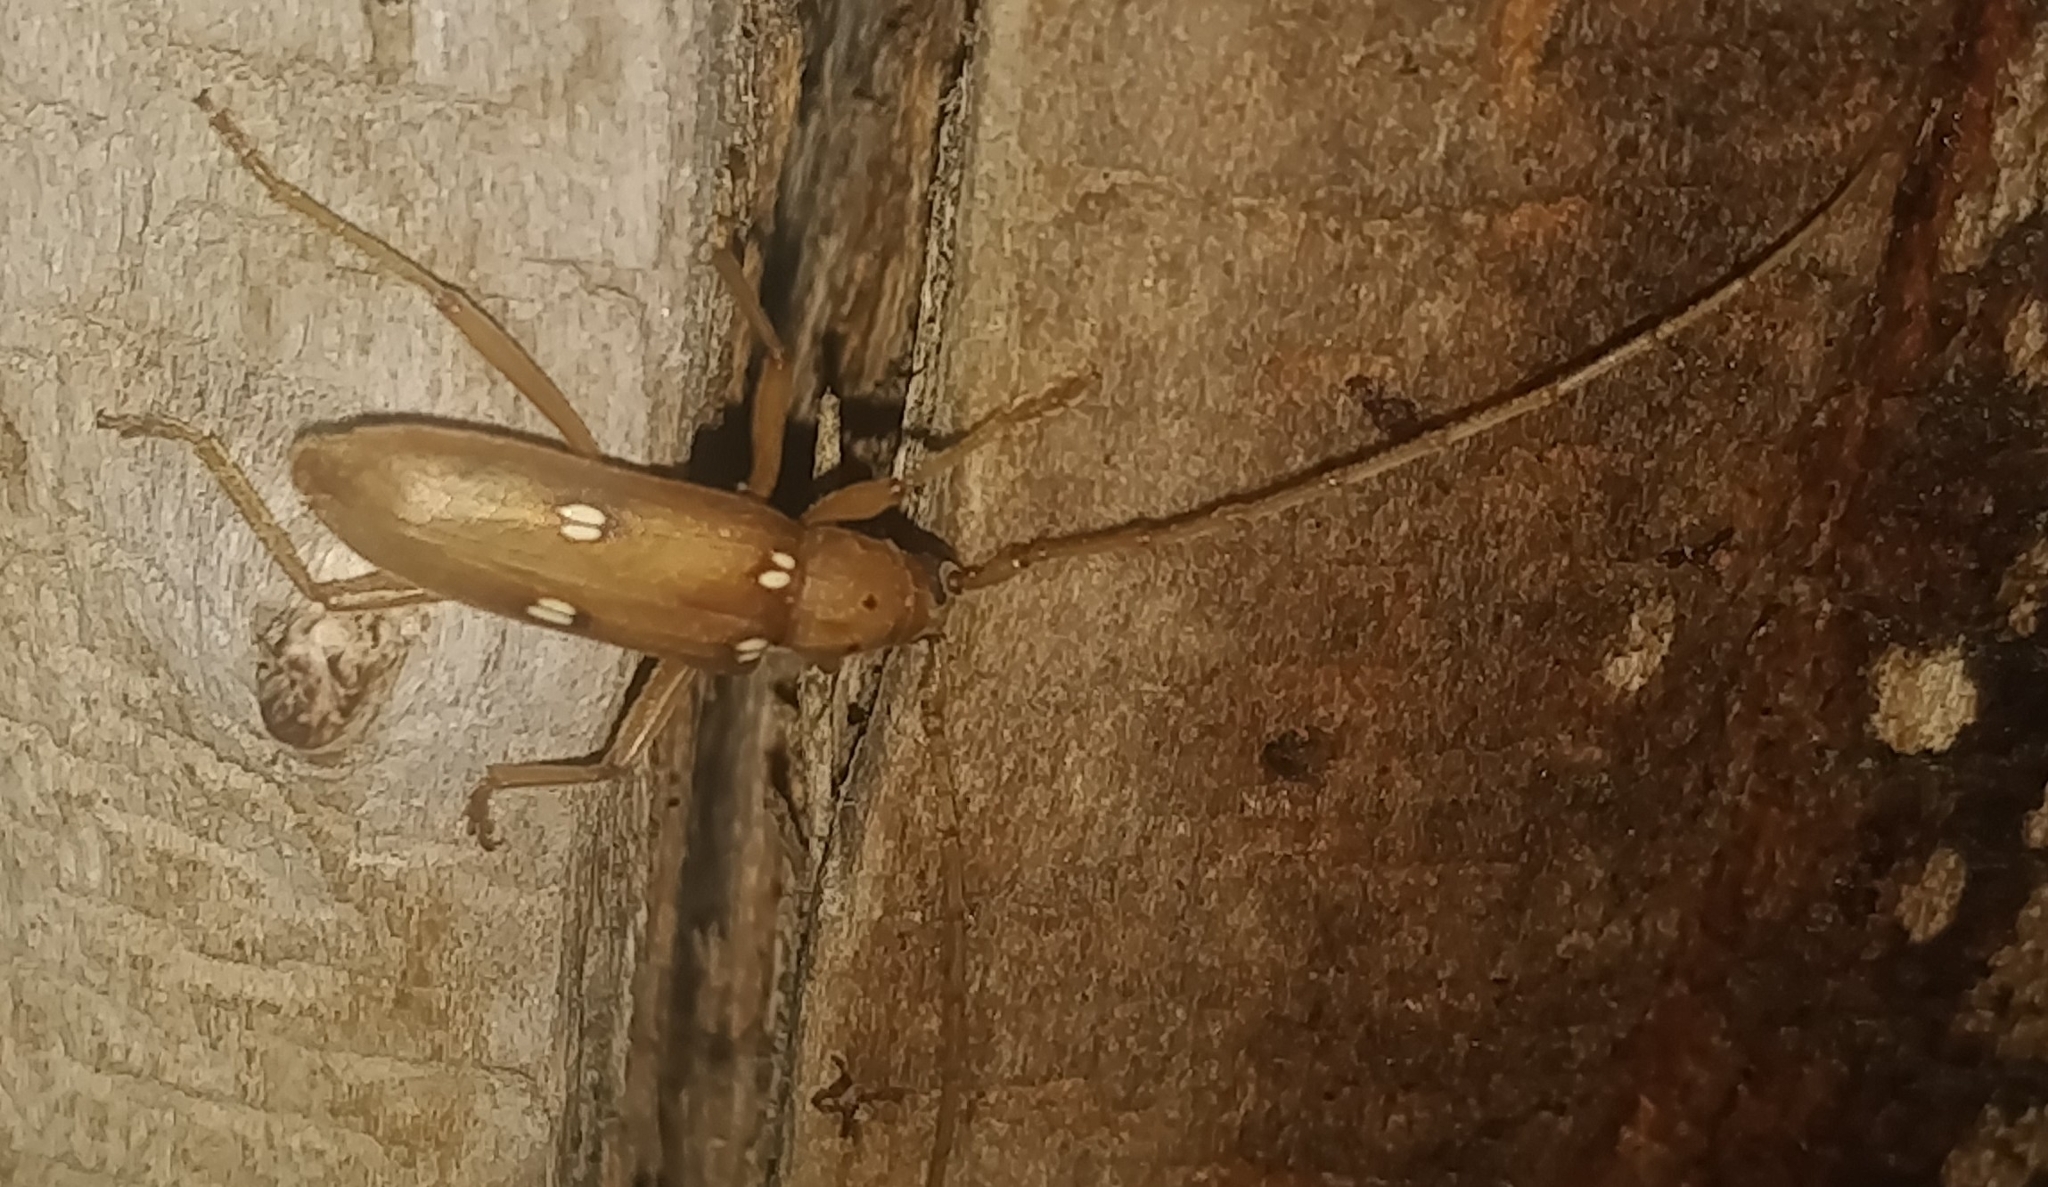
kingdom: Animalia
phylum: Arthropoda
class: Insecta
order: Coleoptera
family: Cerambycidae
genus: Eburia
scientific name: Eburia quadrigeminata
